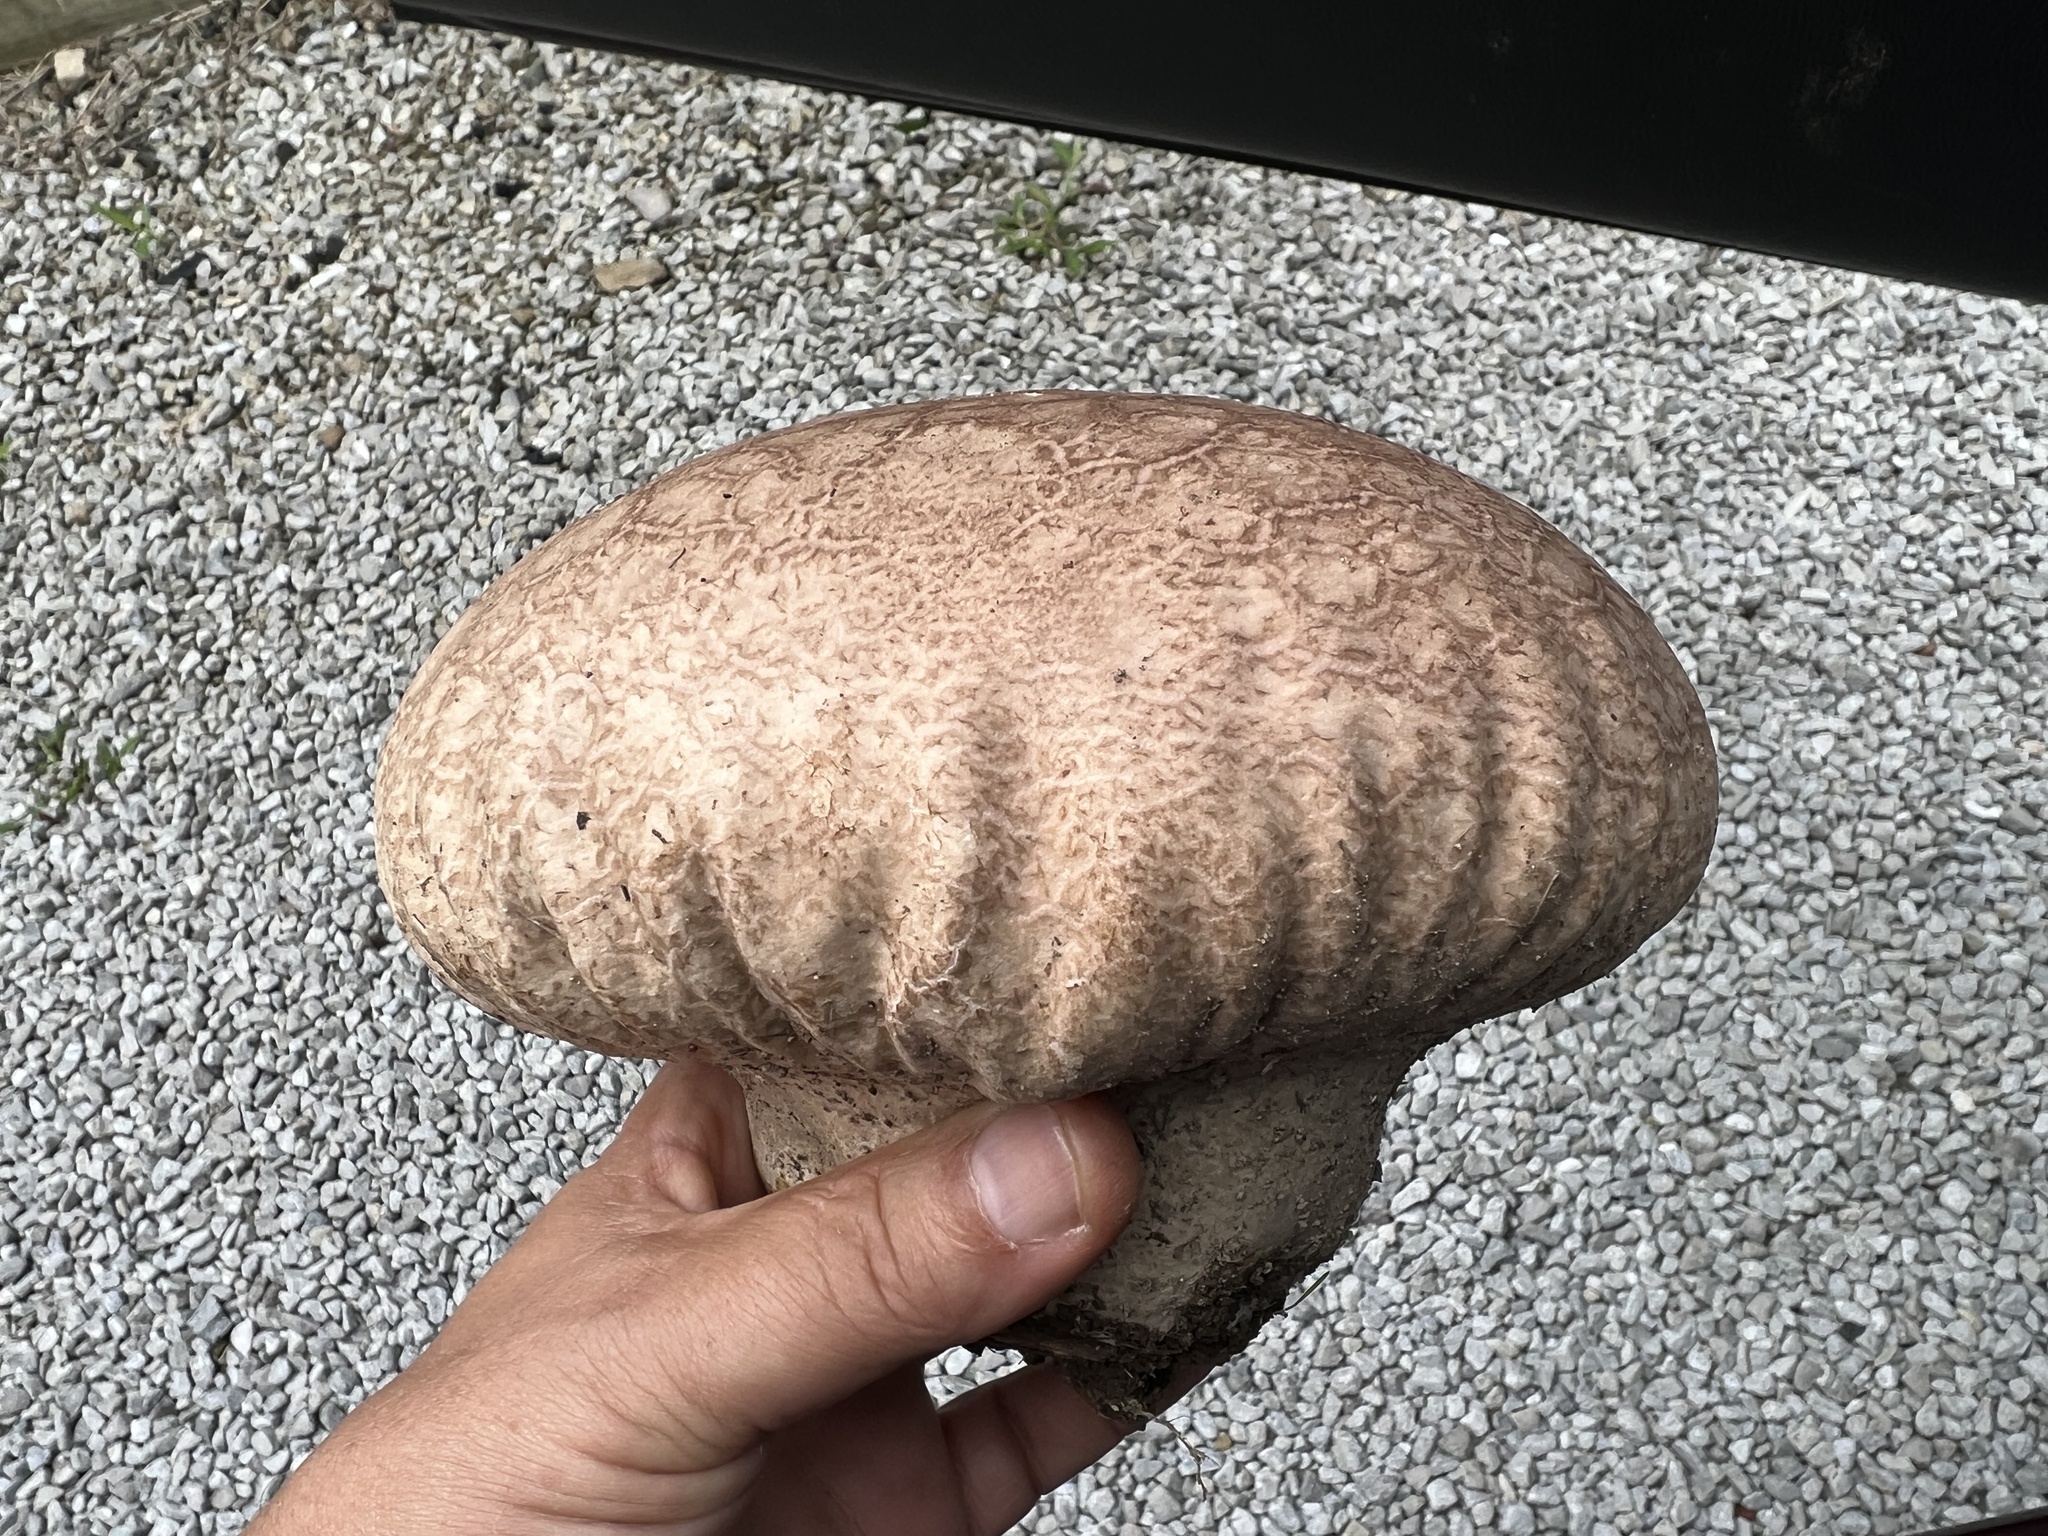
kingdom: Fungi
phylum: Basidiomycota
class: Agaricomycetes
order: Agaricales
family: Lycoperdaceae
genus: Calvatia
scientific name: Calvatia cyathiformis
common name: Purple-spored puffball
